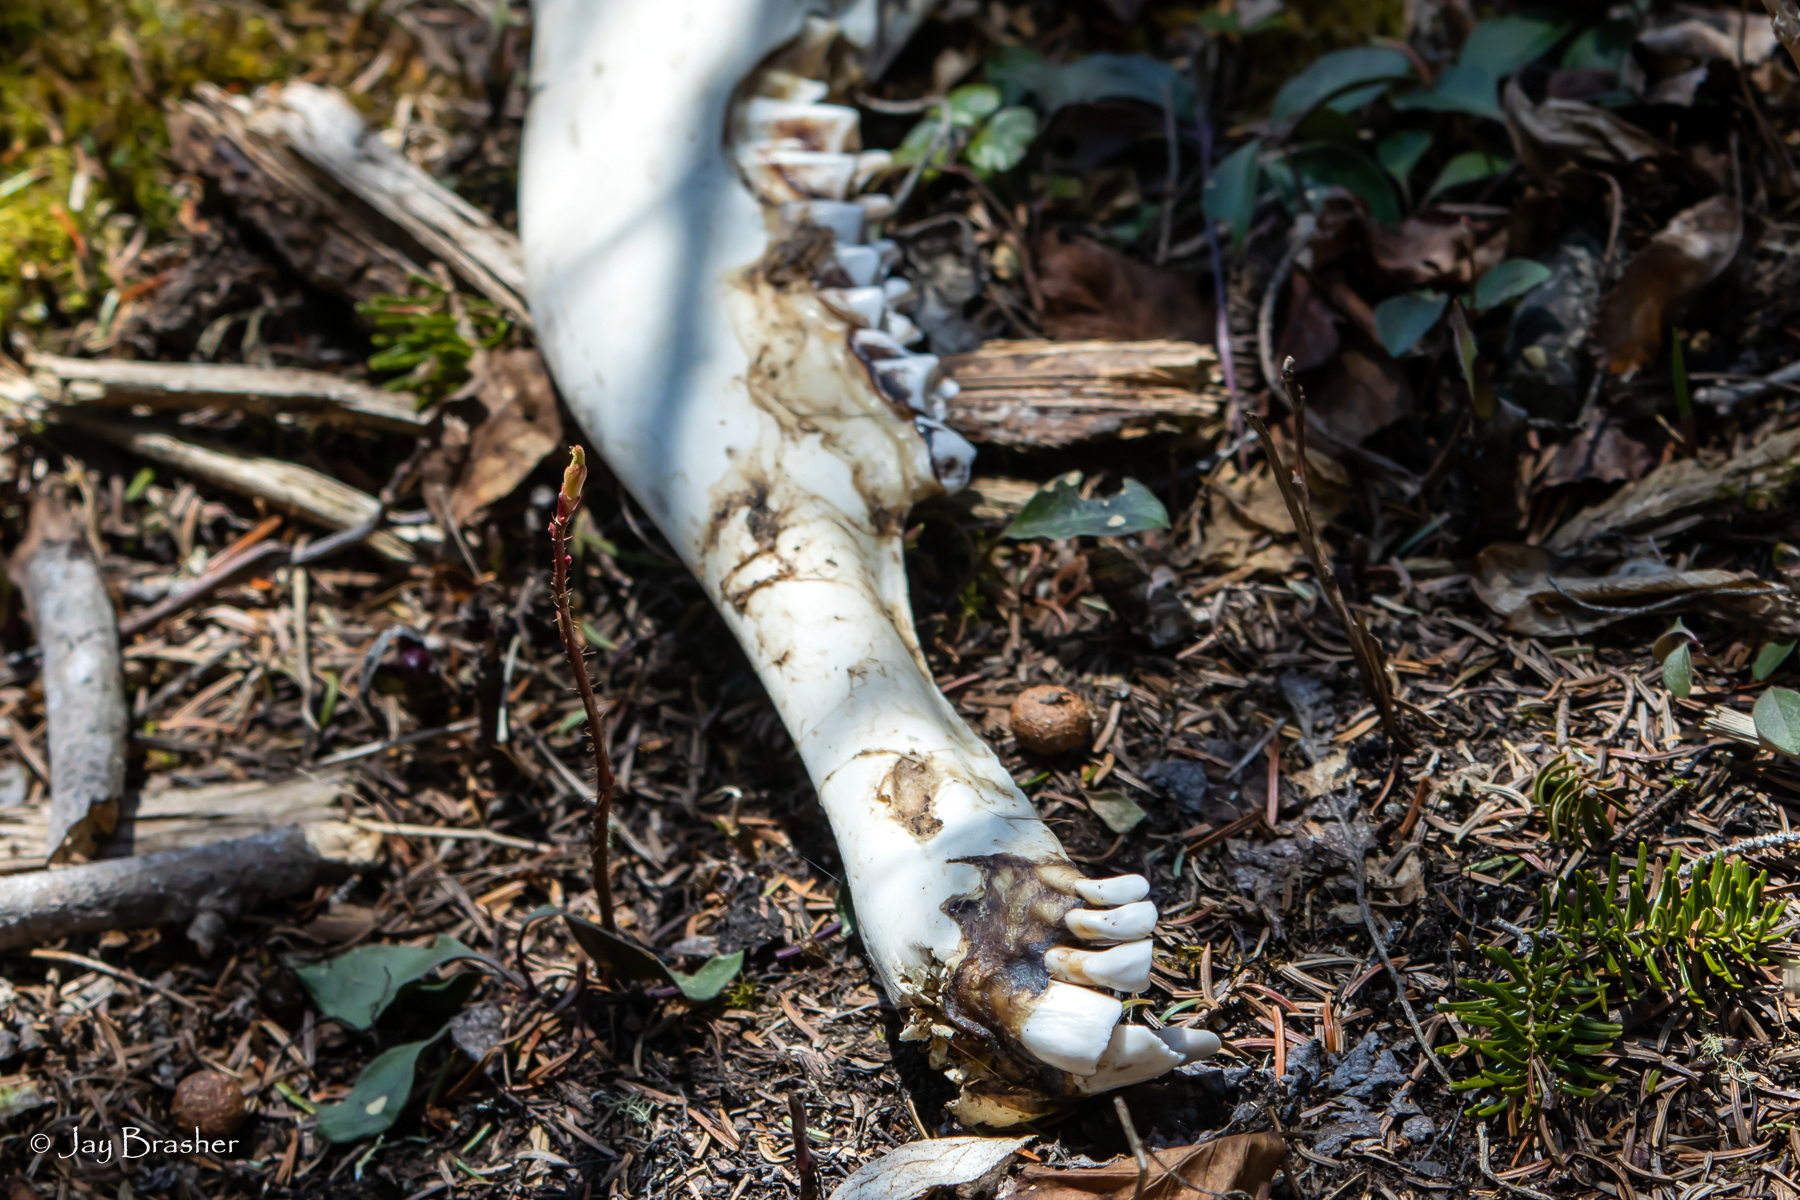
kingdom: Animalia
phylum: Chordata
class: Mammalia
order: Artiodactyla
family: Cervidae
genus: Alces
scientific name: Alces alces
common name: Moose
